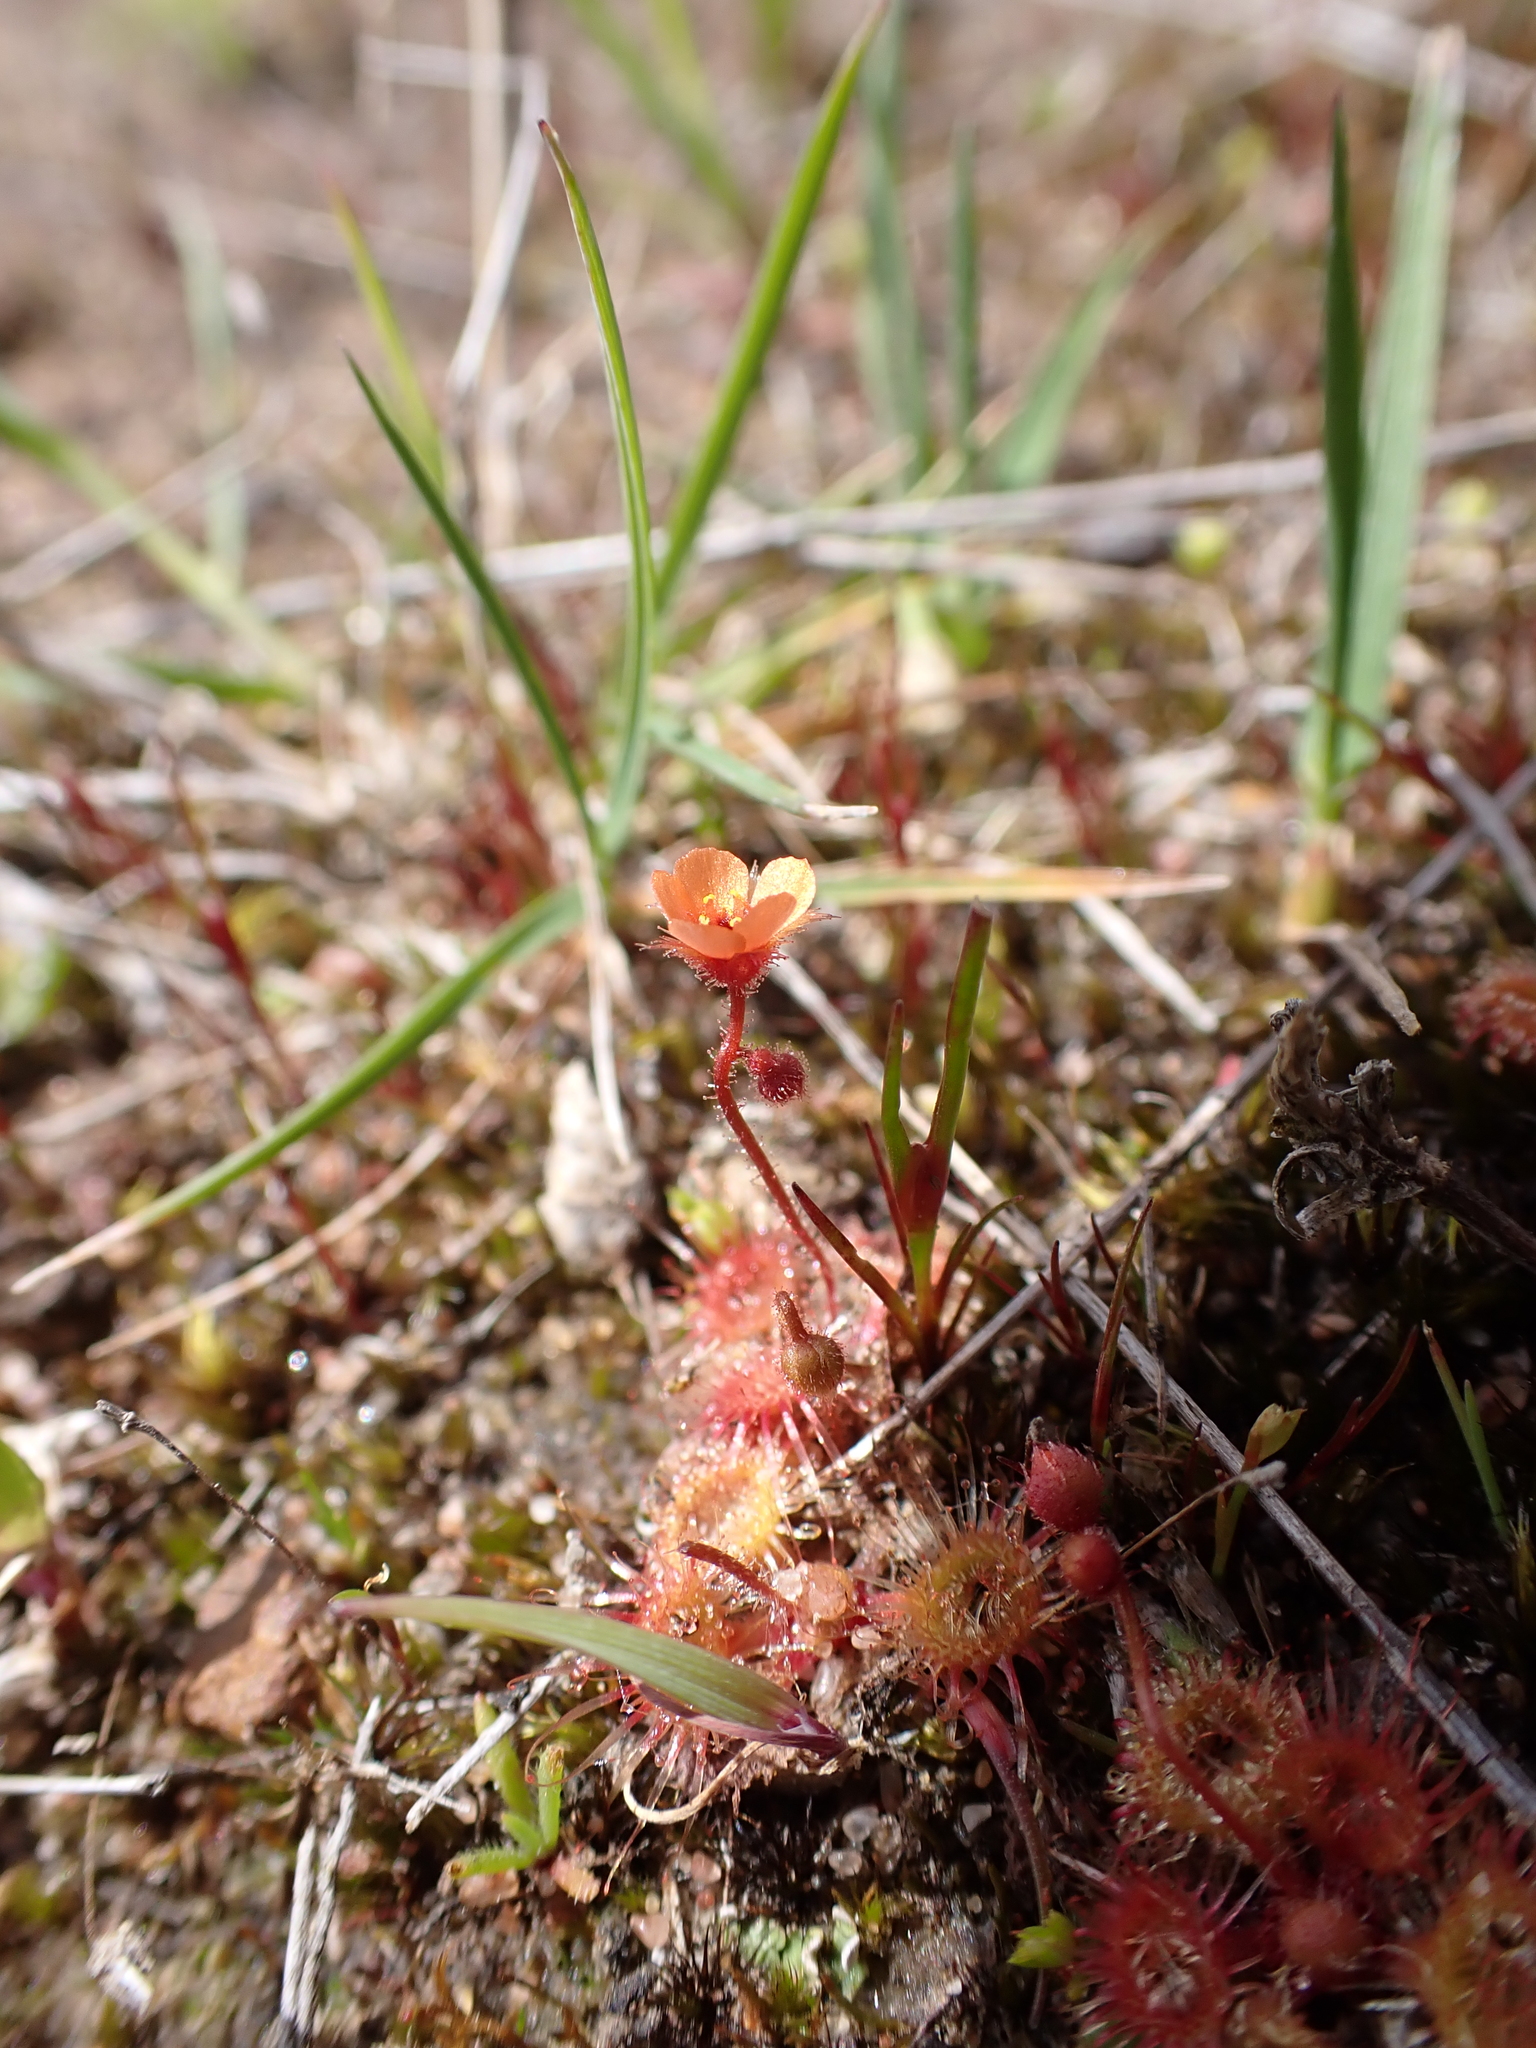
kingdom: Plantae
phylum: Tracheophyta
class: Magnoliopsida
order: Caryophyllales
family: Droseraceae
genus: Drosera
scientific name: Drosera glanduligera
